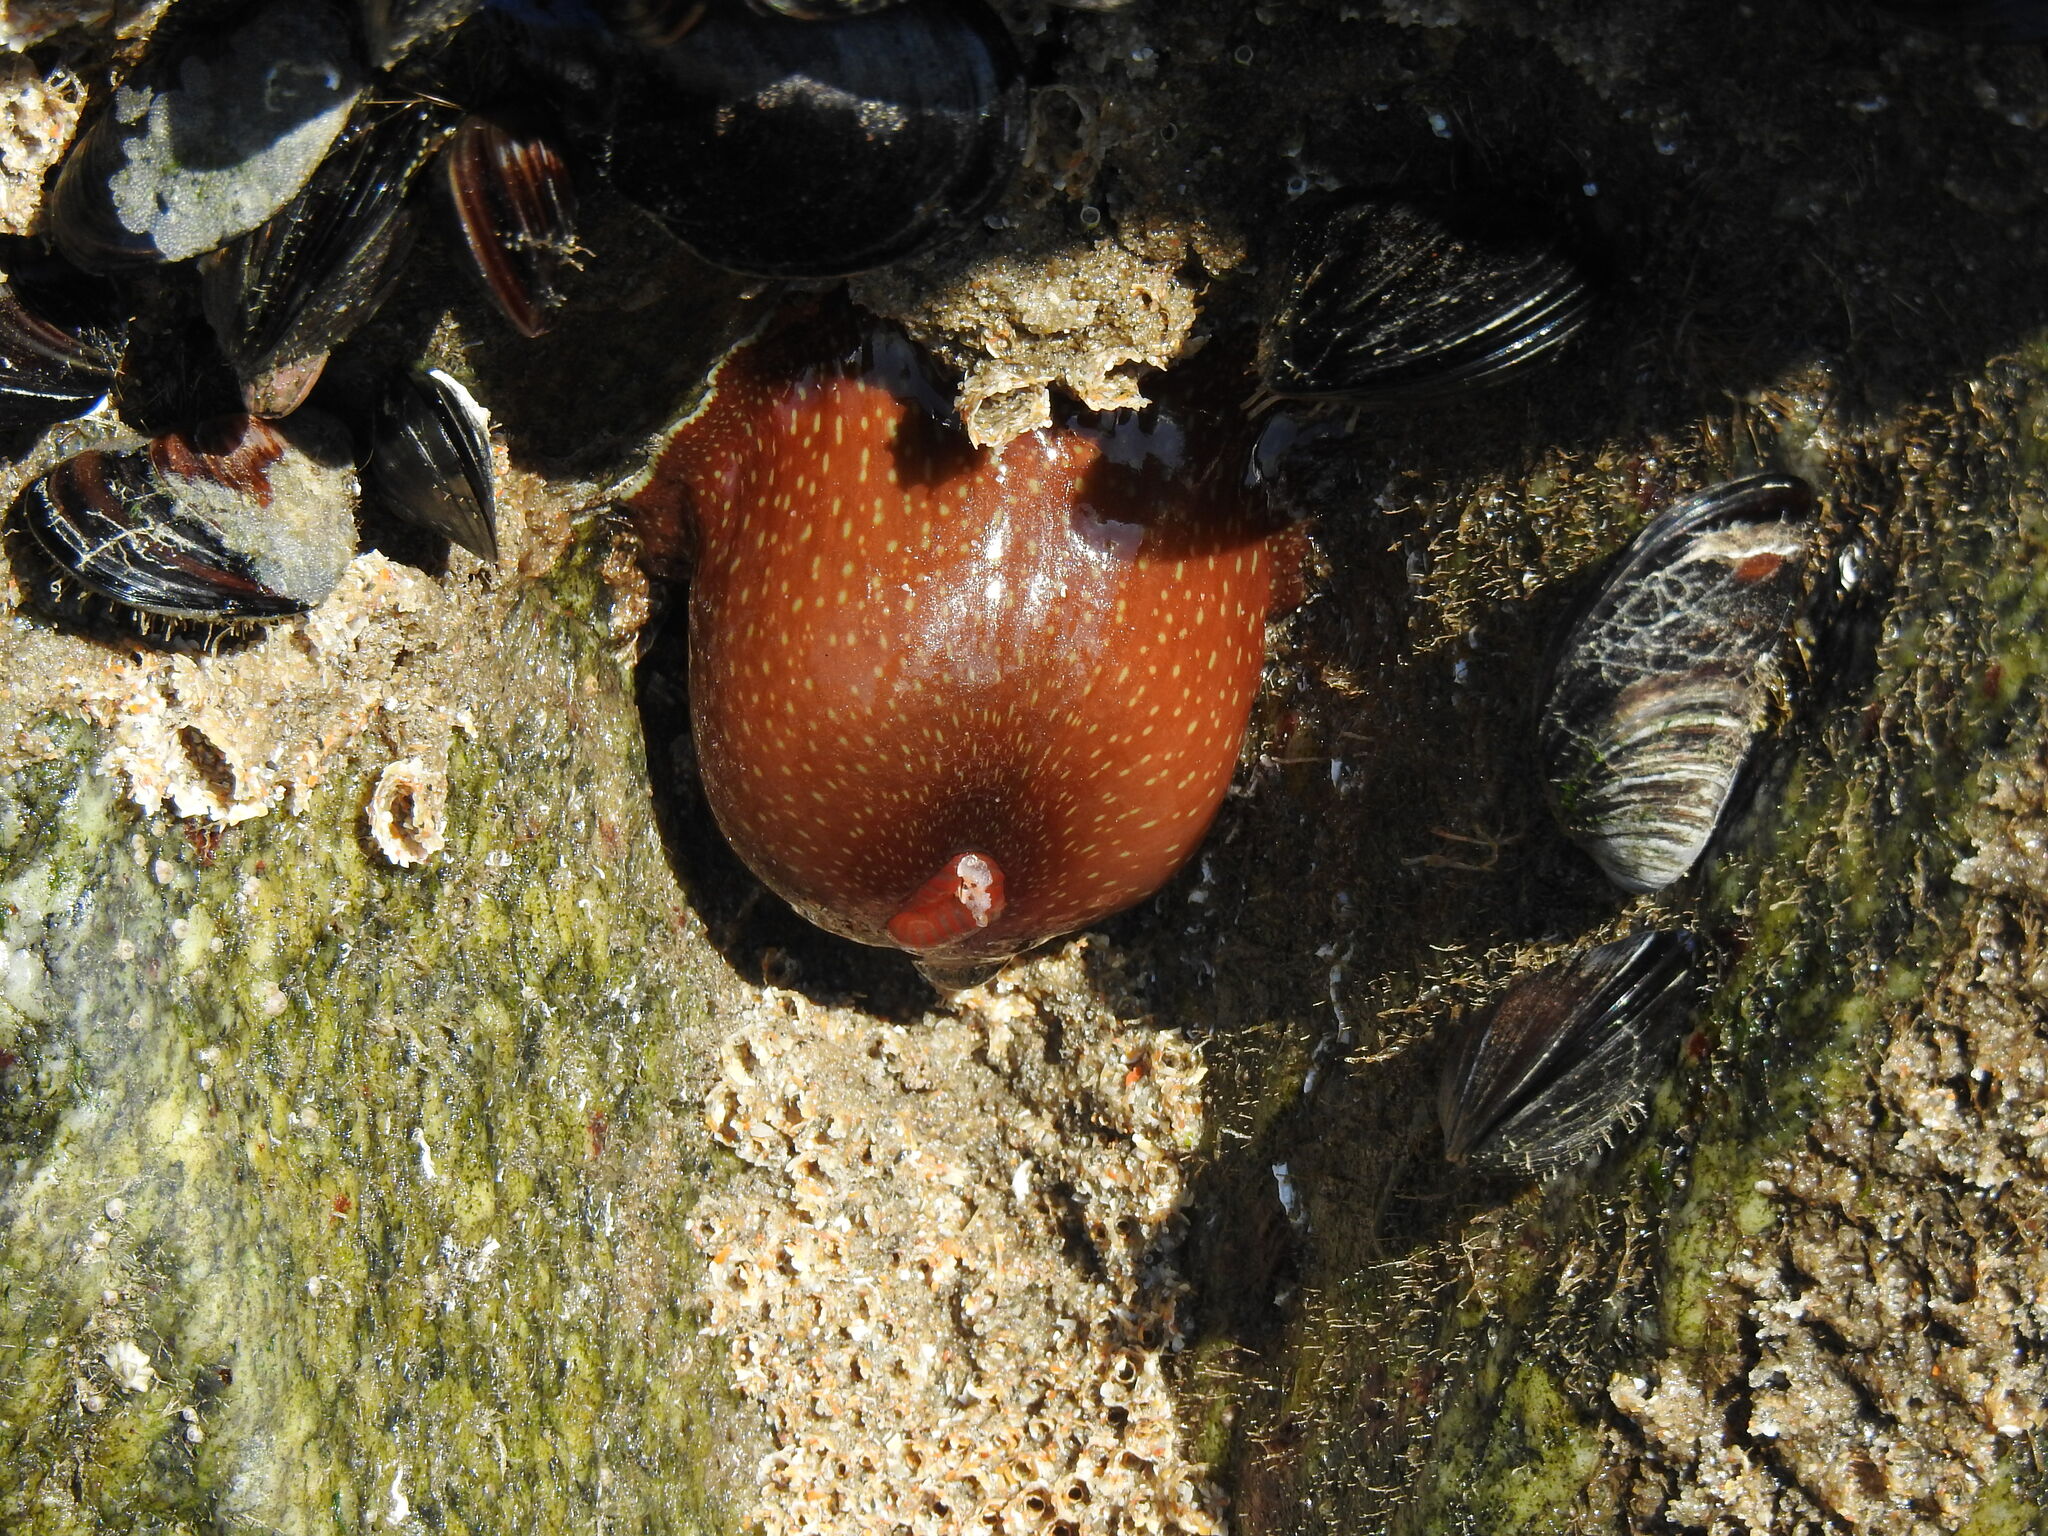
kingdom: Animalia
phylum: Cnidaria
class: Anthozoa
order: Actiniaria
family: Actiniidae
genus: Actinia
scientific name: Actinia fragacea
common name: Strawberry anemone
